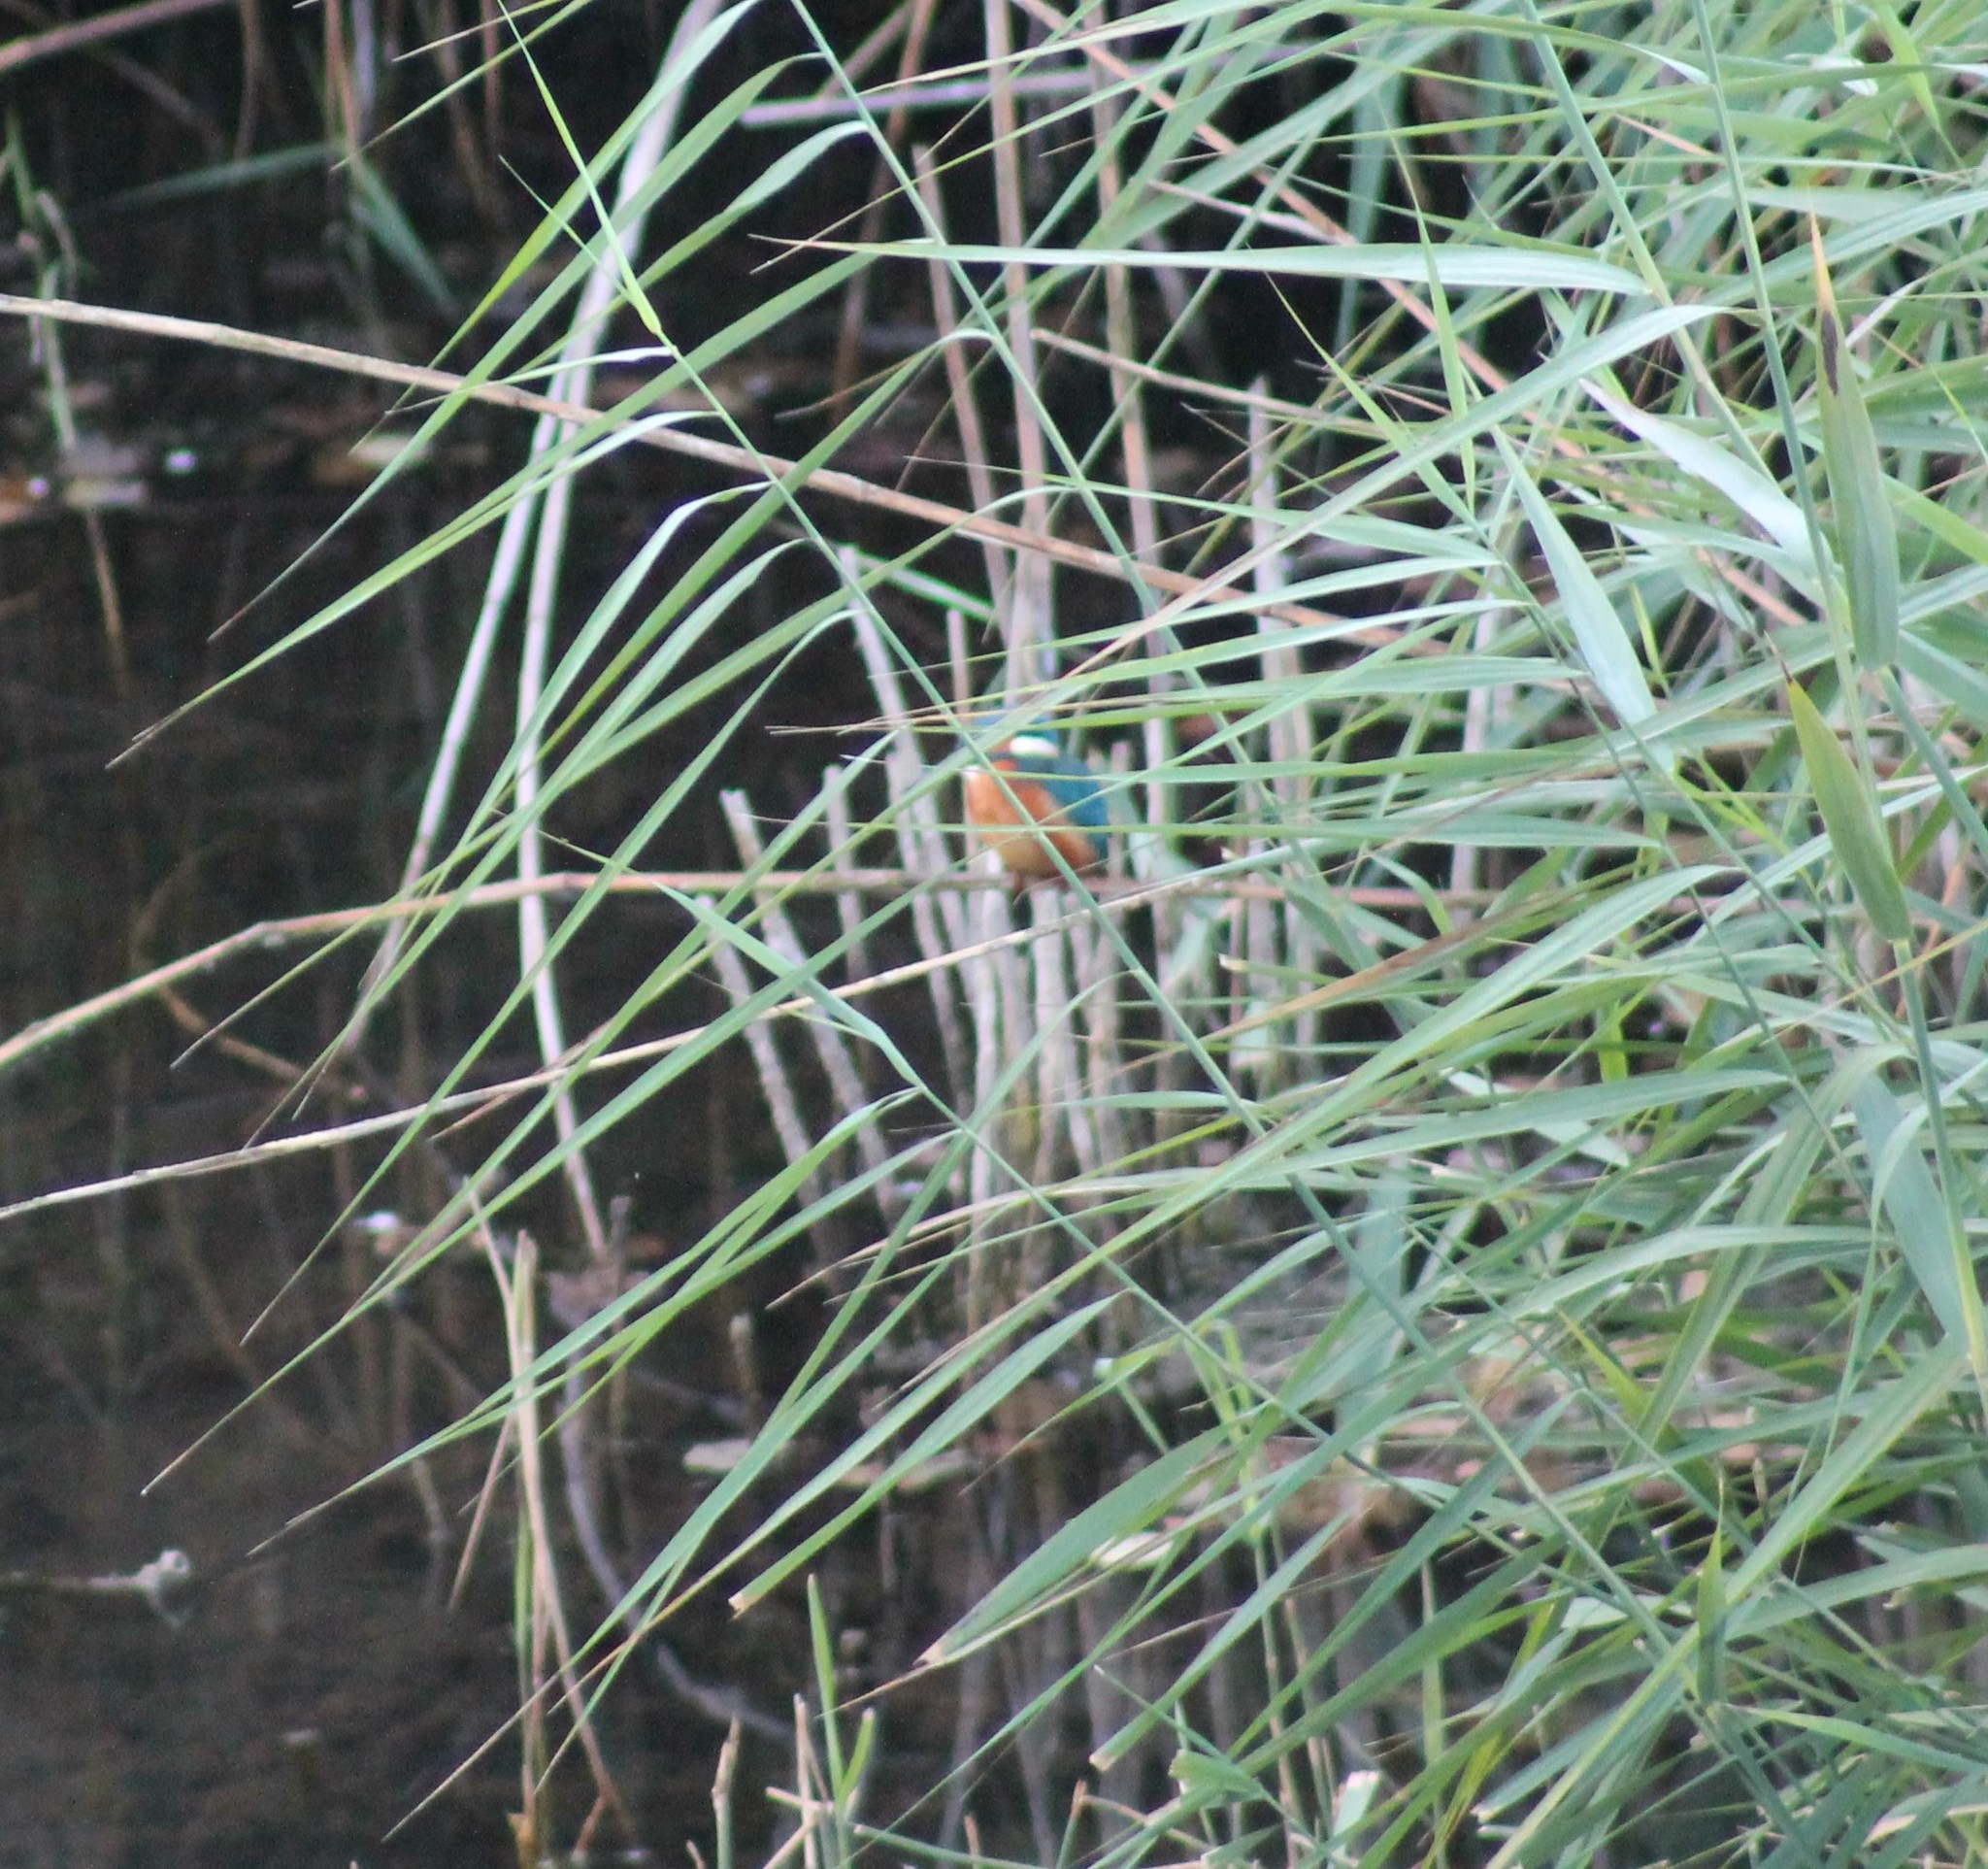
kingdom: Animalia
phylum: Chordata
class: Aves
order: Coraciiformes
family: Alcedinidae
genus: Alcedo
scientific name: Alcedo atthis
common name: Common kingfisher
